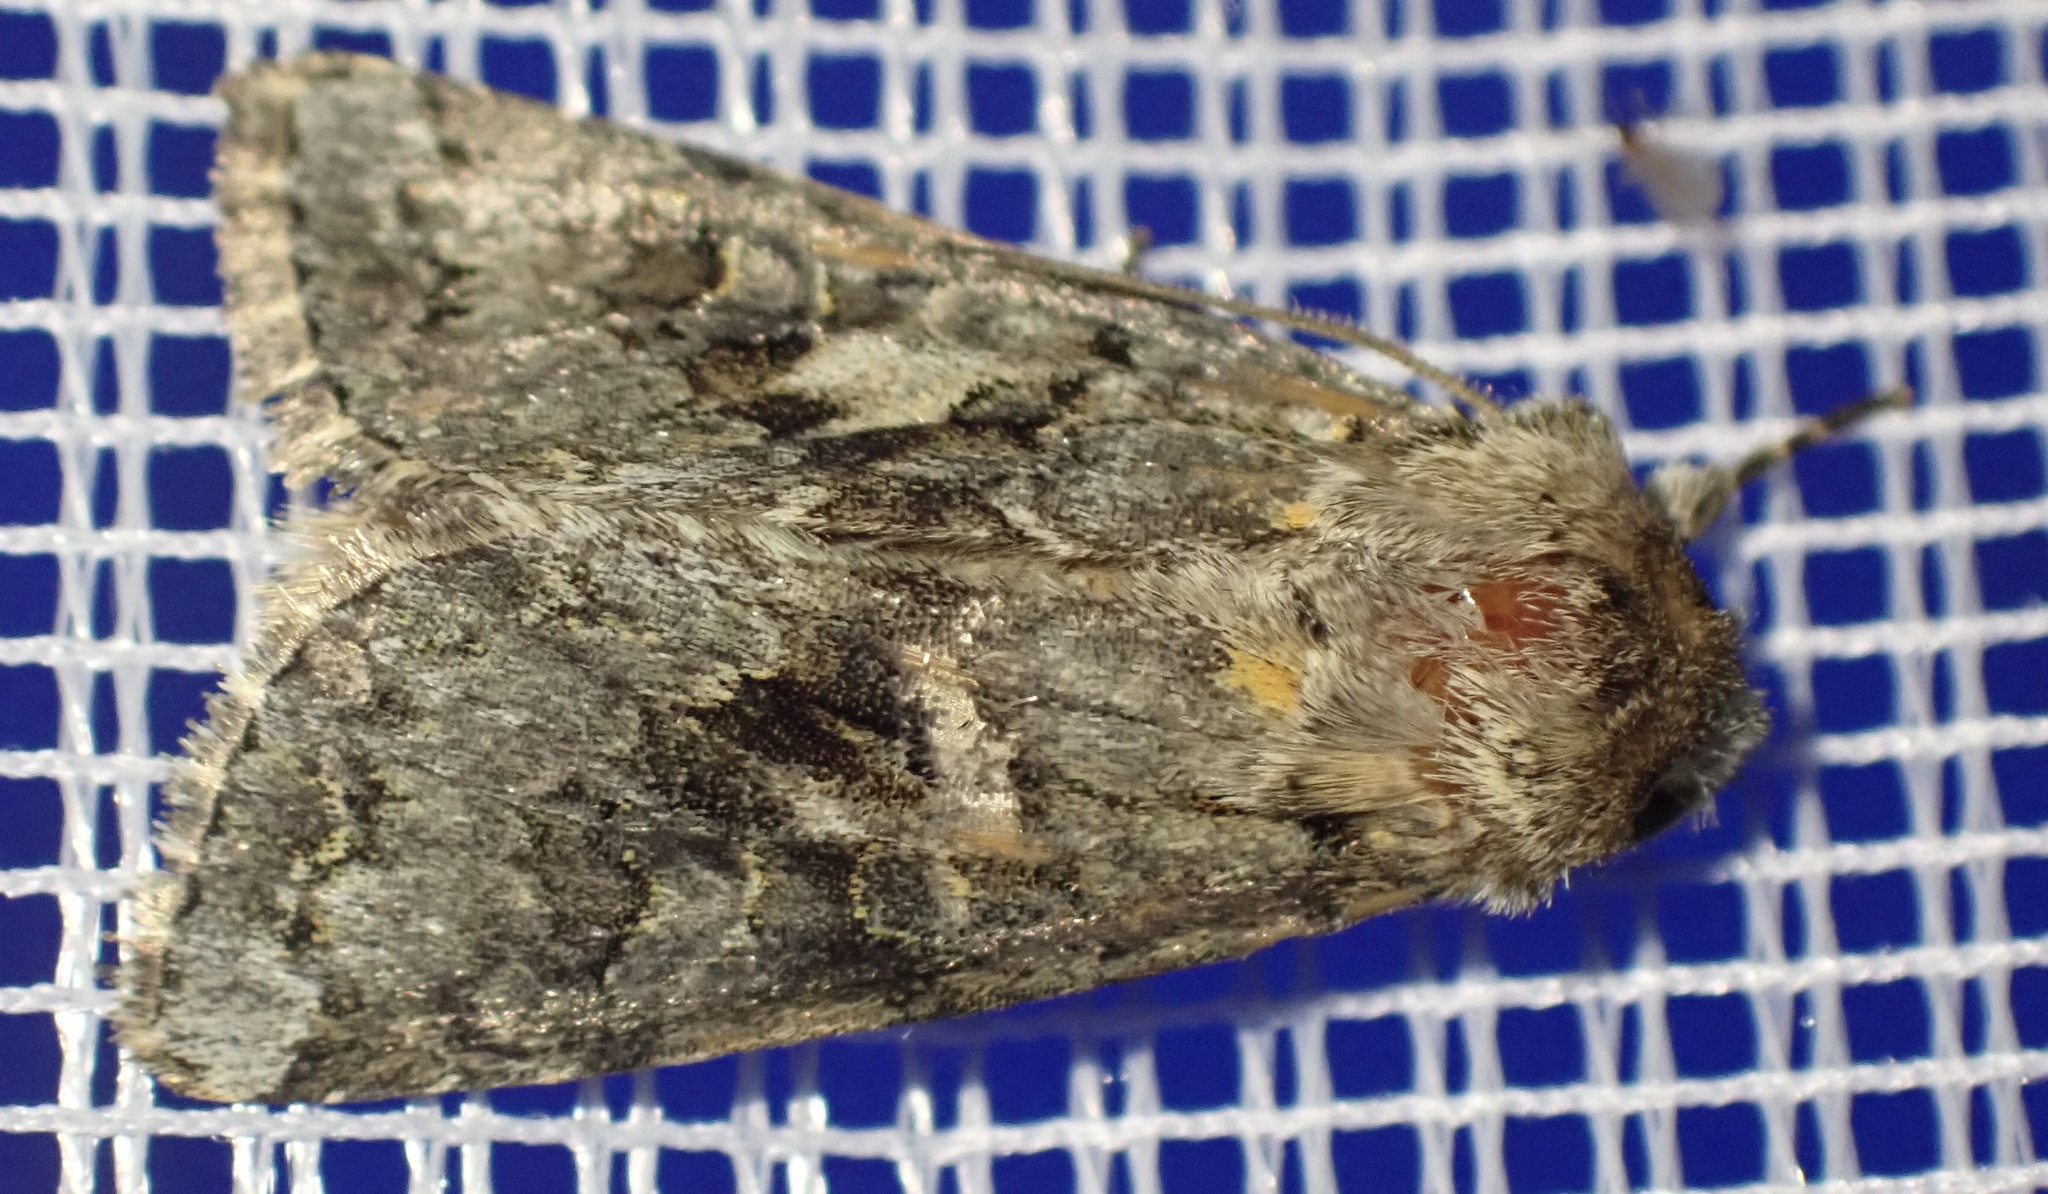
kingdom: Animalia
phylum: Arthropoda
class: Insecta
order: Lepidoptera
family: Noctuidae
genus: Hada
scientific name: Hada plebeja
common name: Shears
